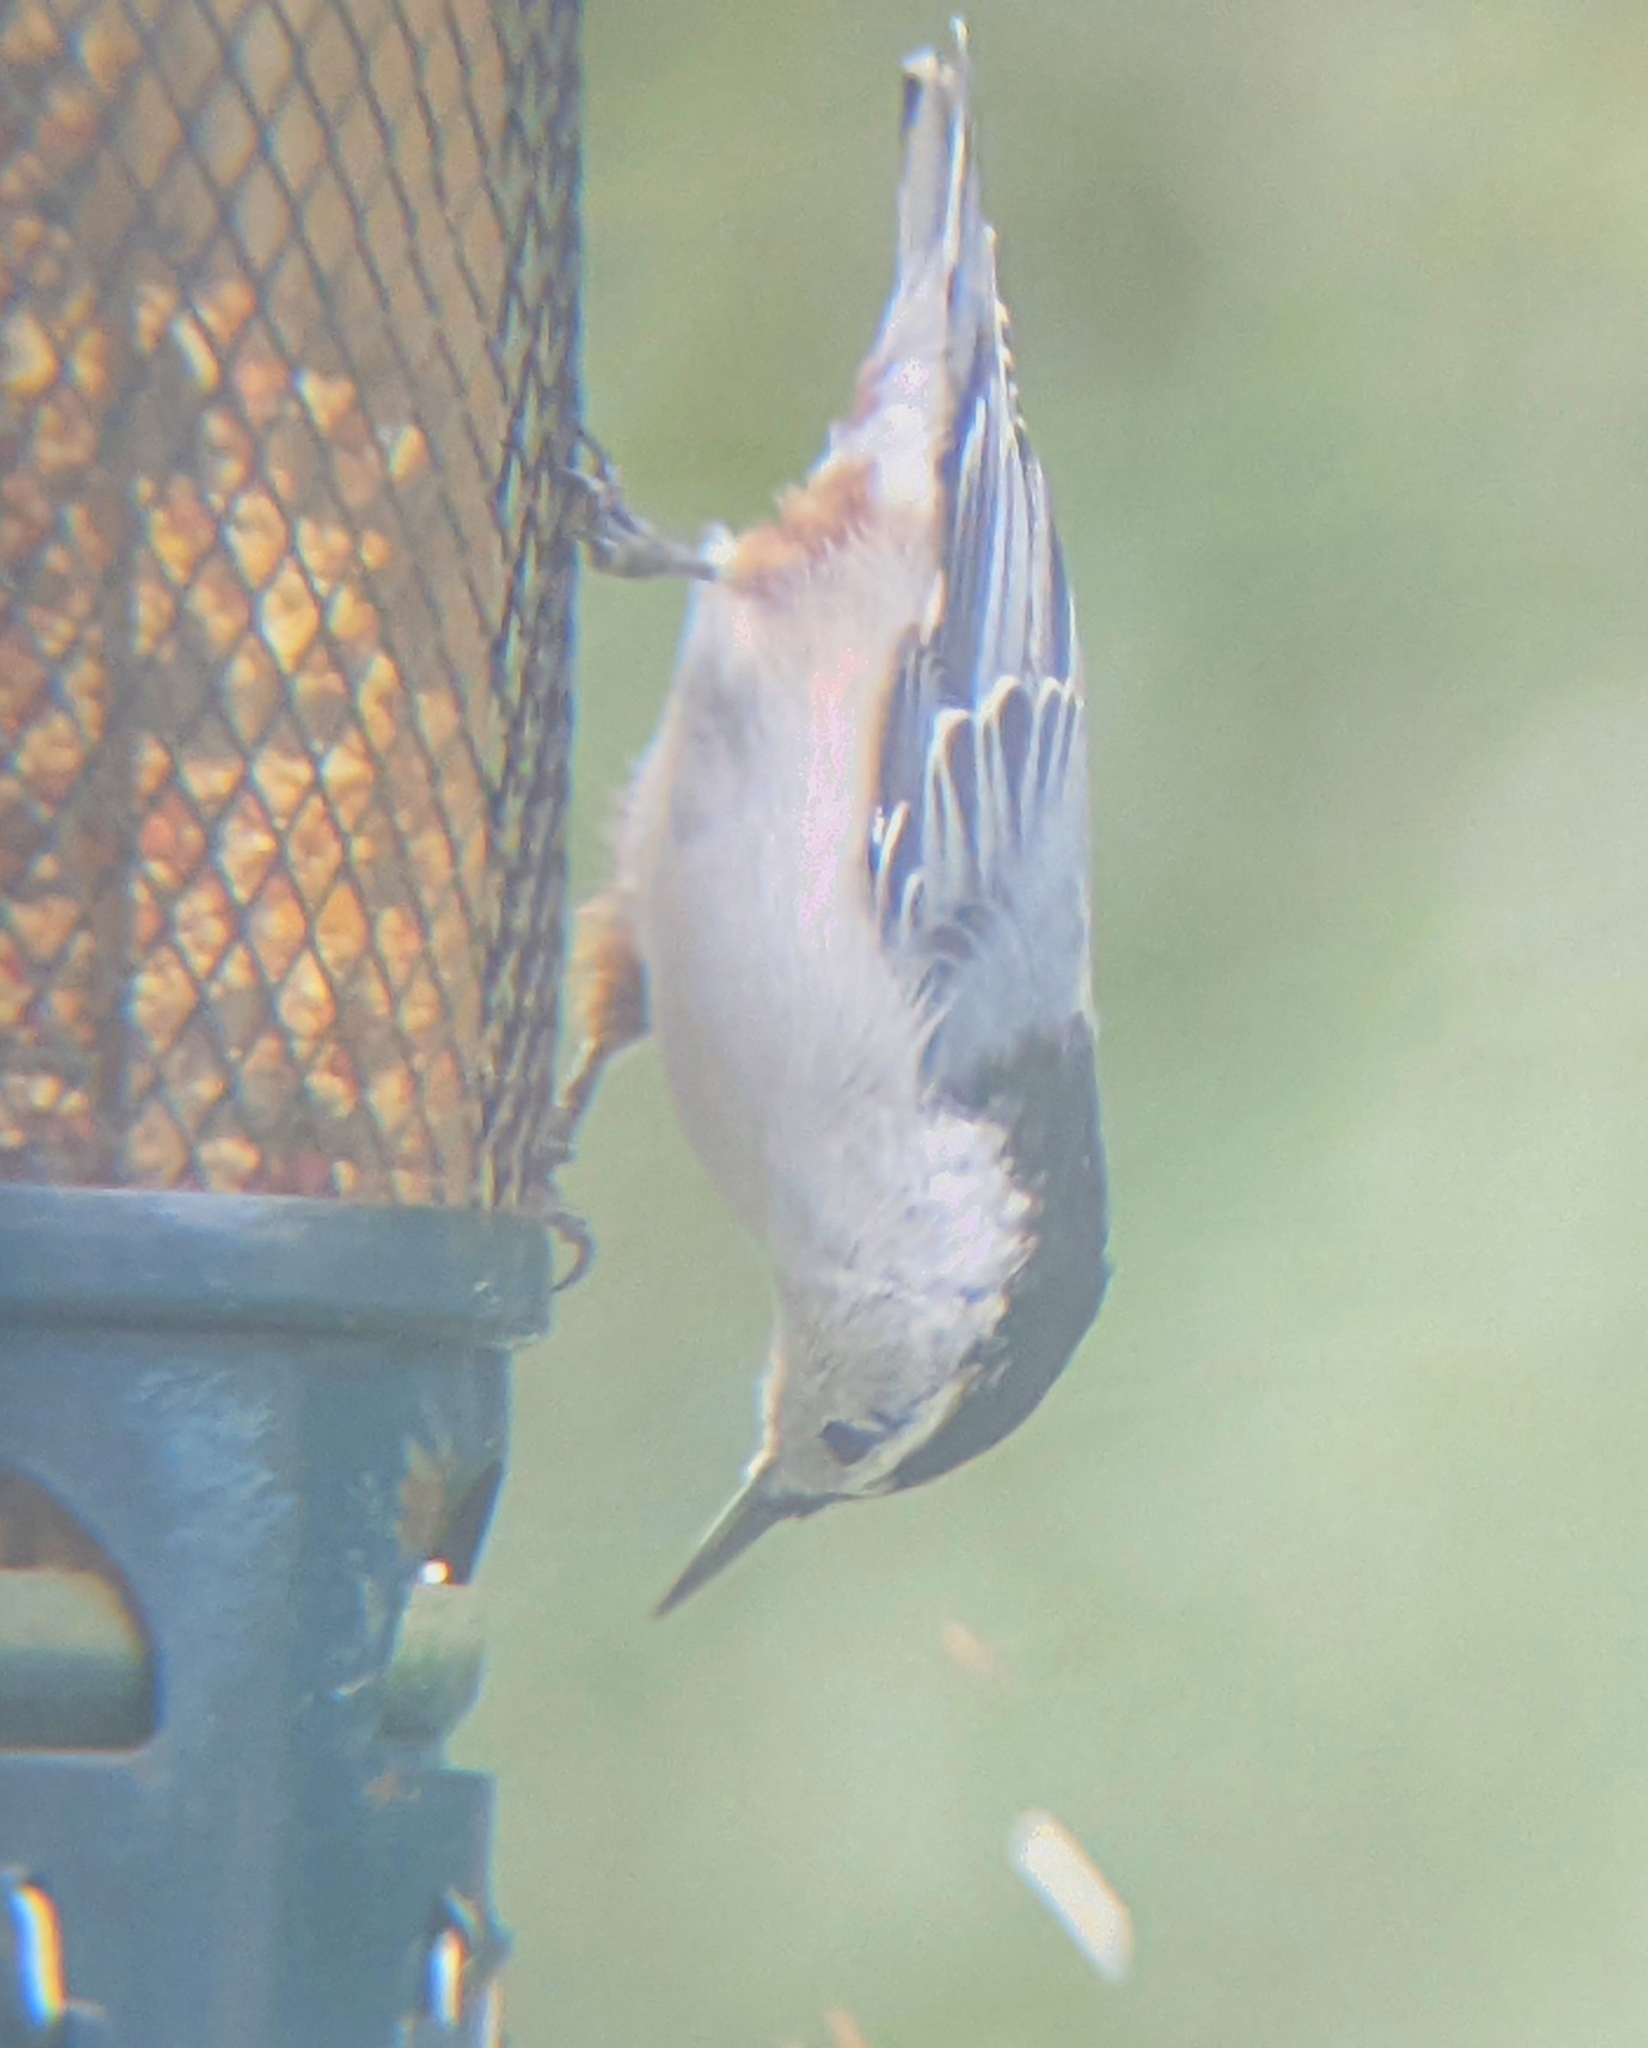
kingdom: Animalia
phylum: Chordata
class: Aves
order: Passeriformes
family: Sittidae
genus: Sitta
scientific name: Sitta carolinensis
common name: White-breasted nuthatch
